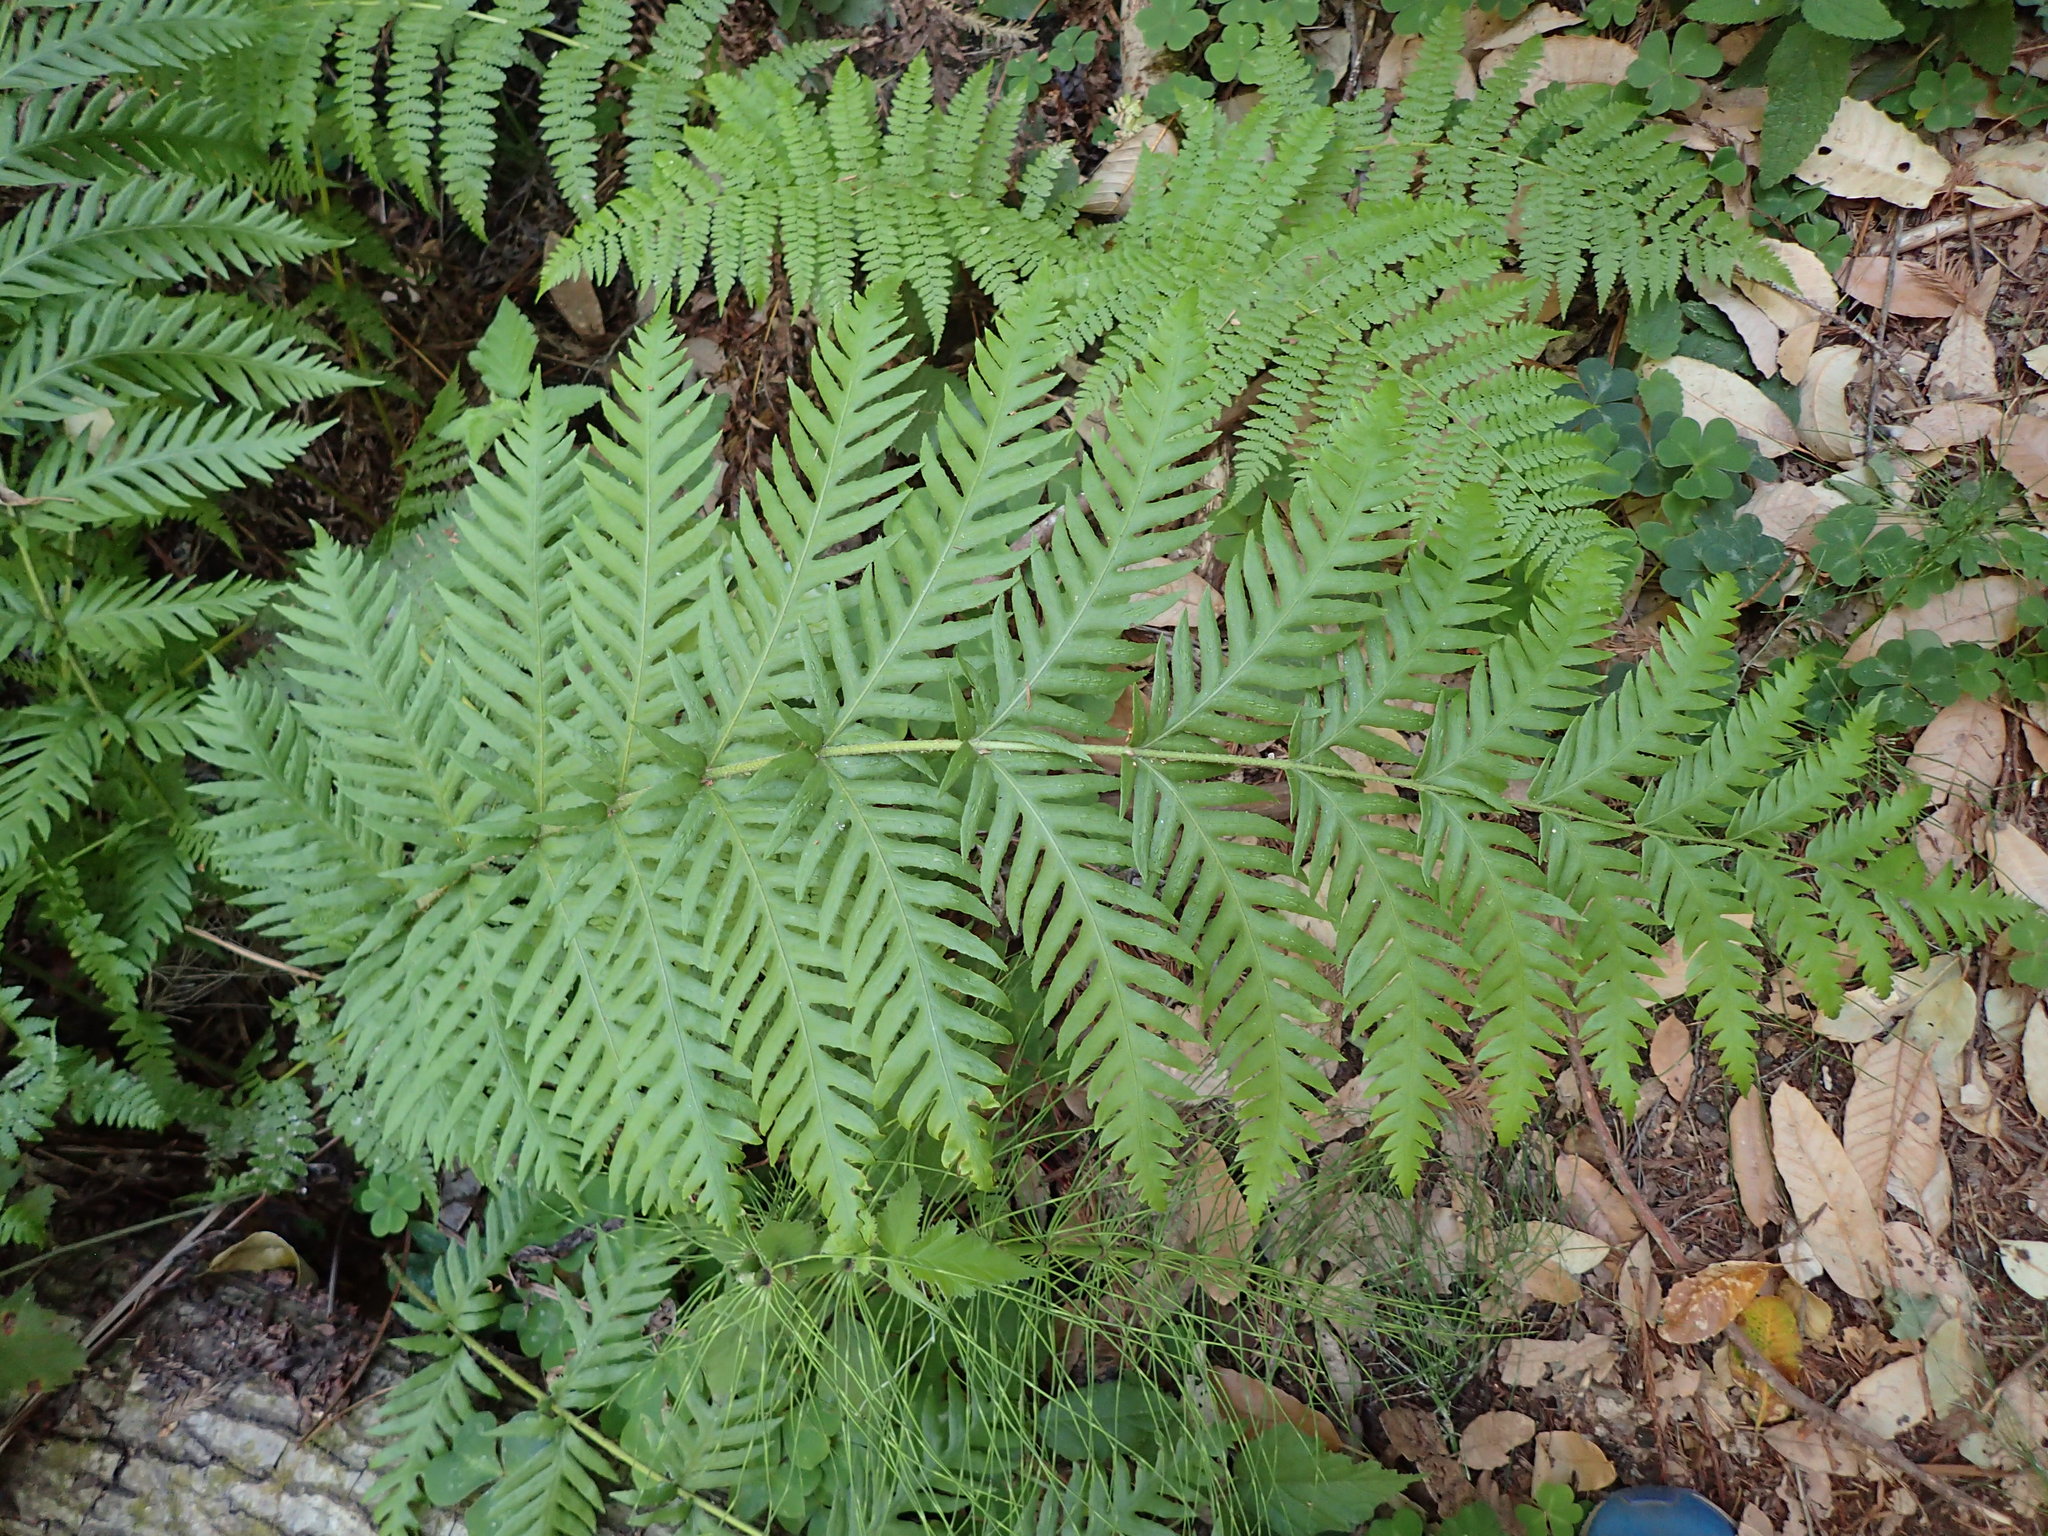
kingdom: Plantae
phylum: Tracheophyta
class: Polypodiopsida
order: Polypodiales
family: Blechnaceae
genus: Woodwardia
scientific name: Woodwardia fimbriata
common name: Giant chain fern
